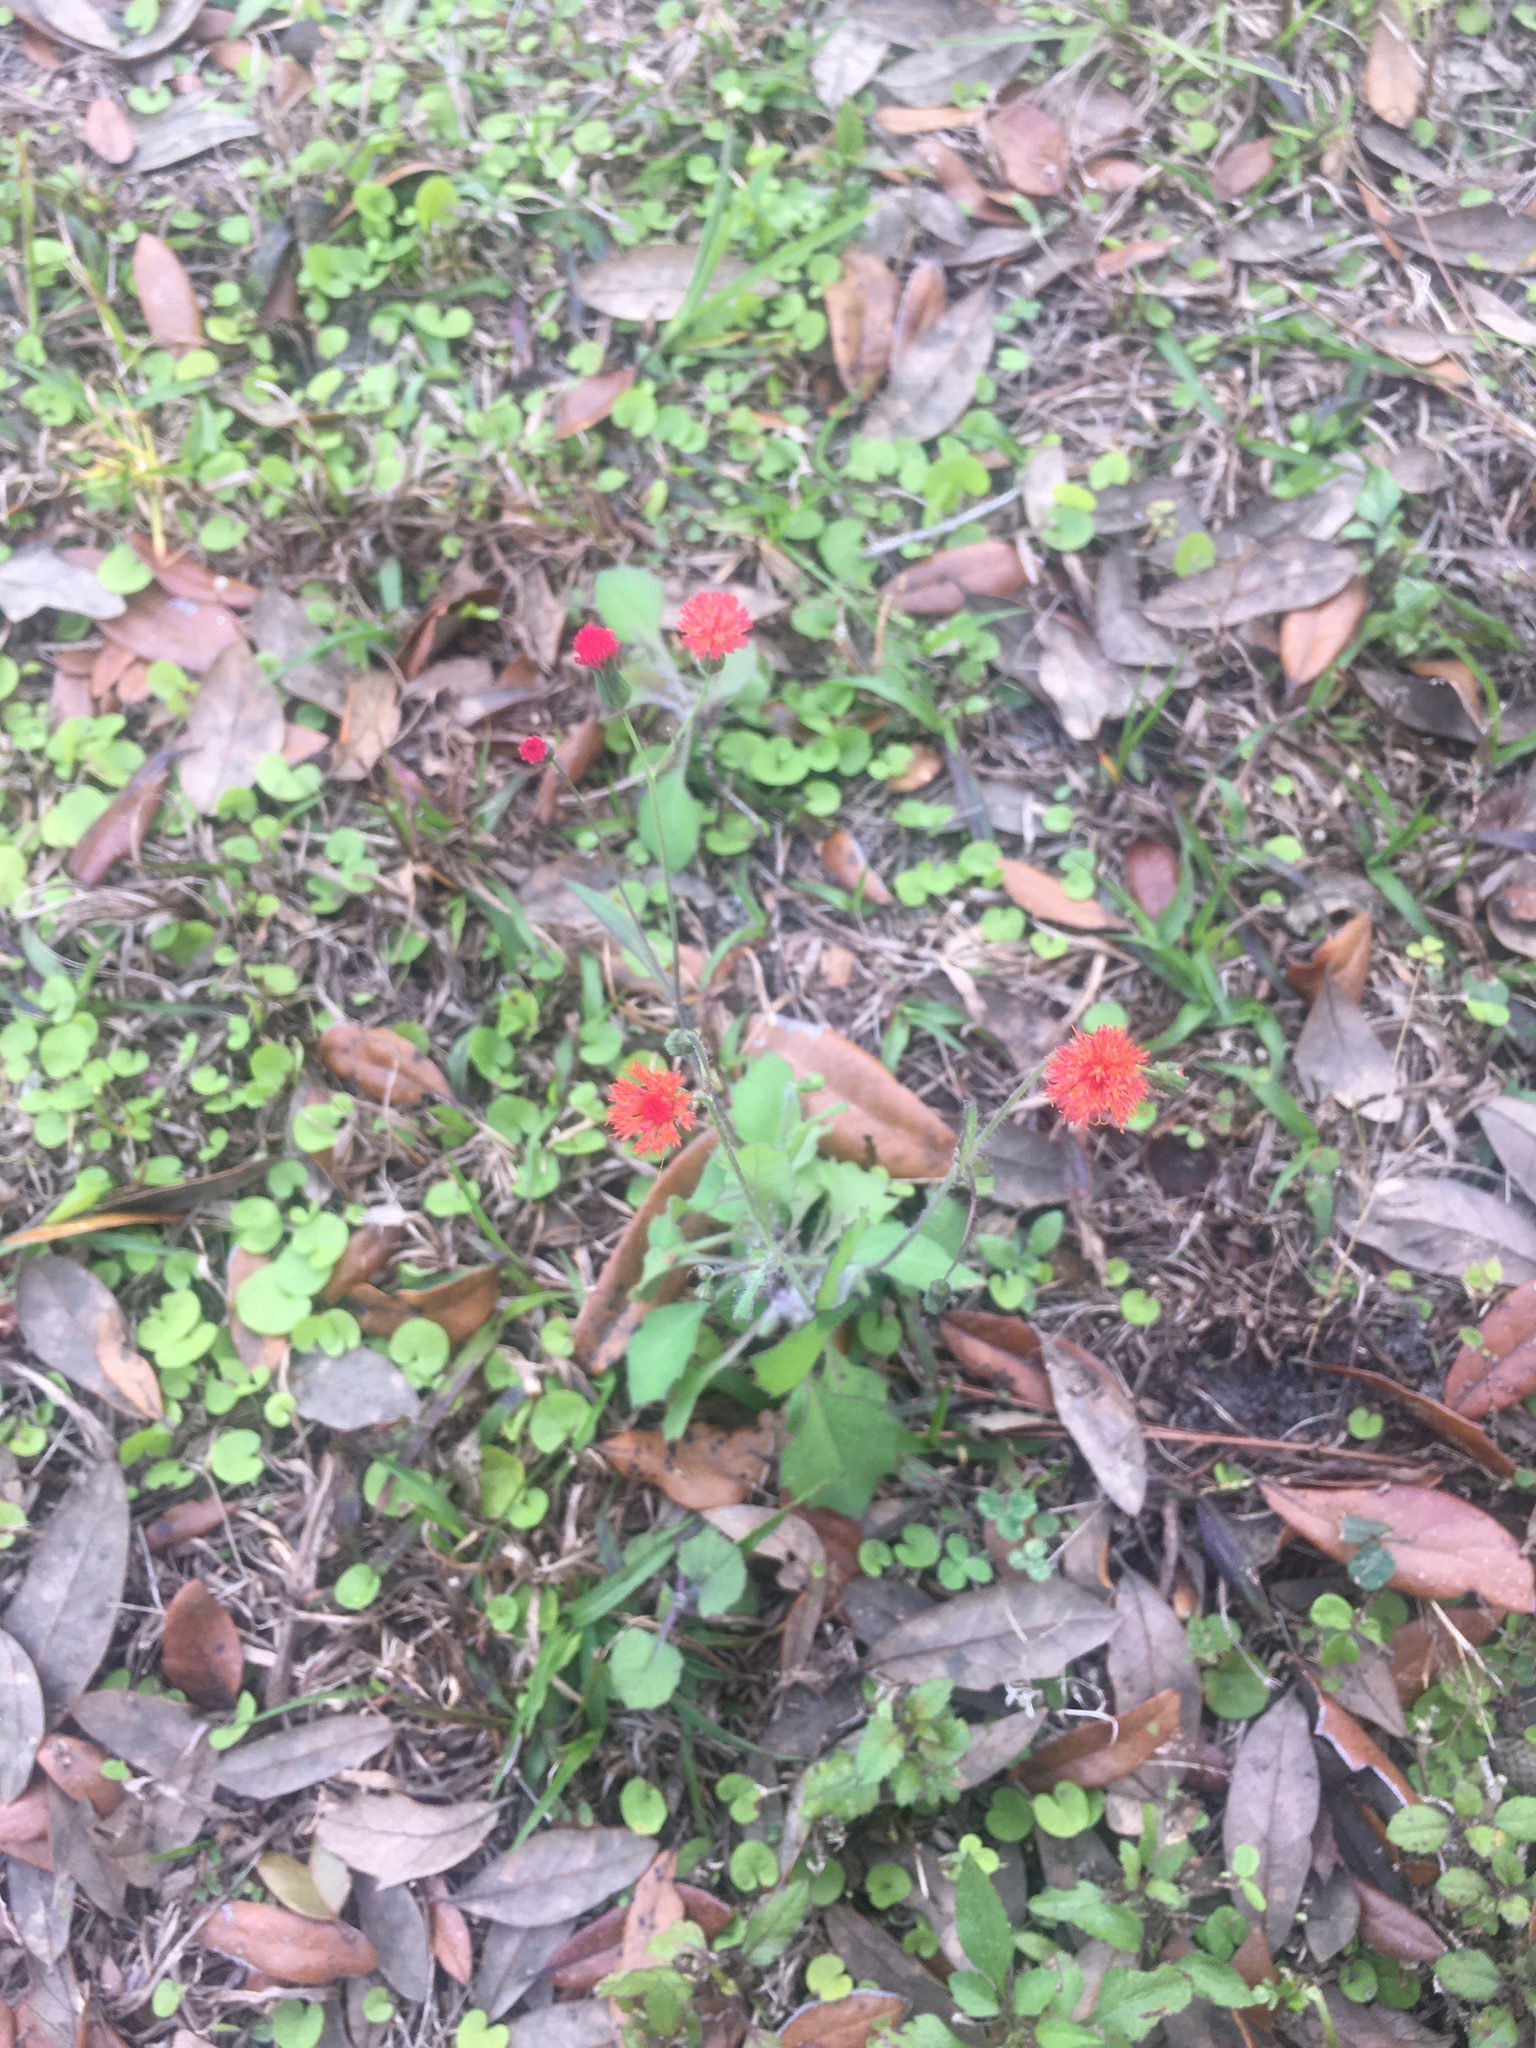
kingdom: Plantae
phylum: Tracheophyta
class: Magnoliopsida
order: Asterales
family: Asteraceae
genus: Emilia
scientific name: Emilia fosbergii
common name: Florida tasselflower
